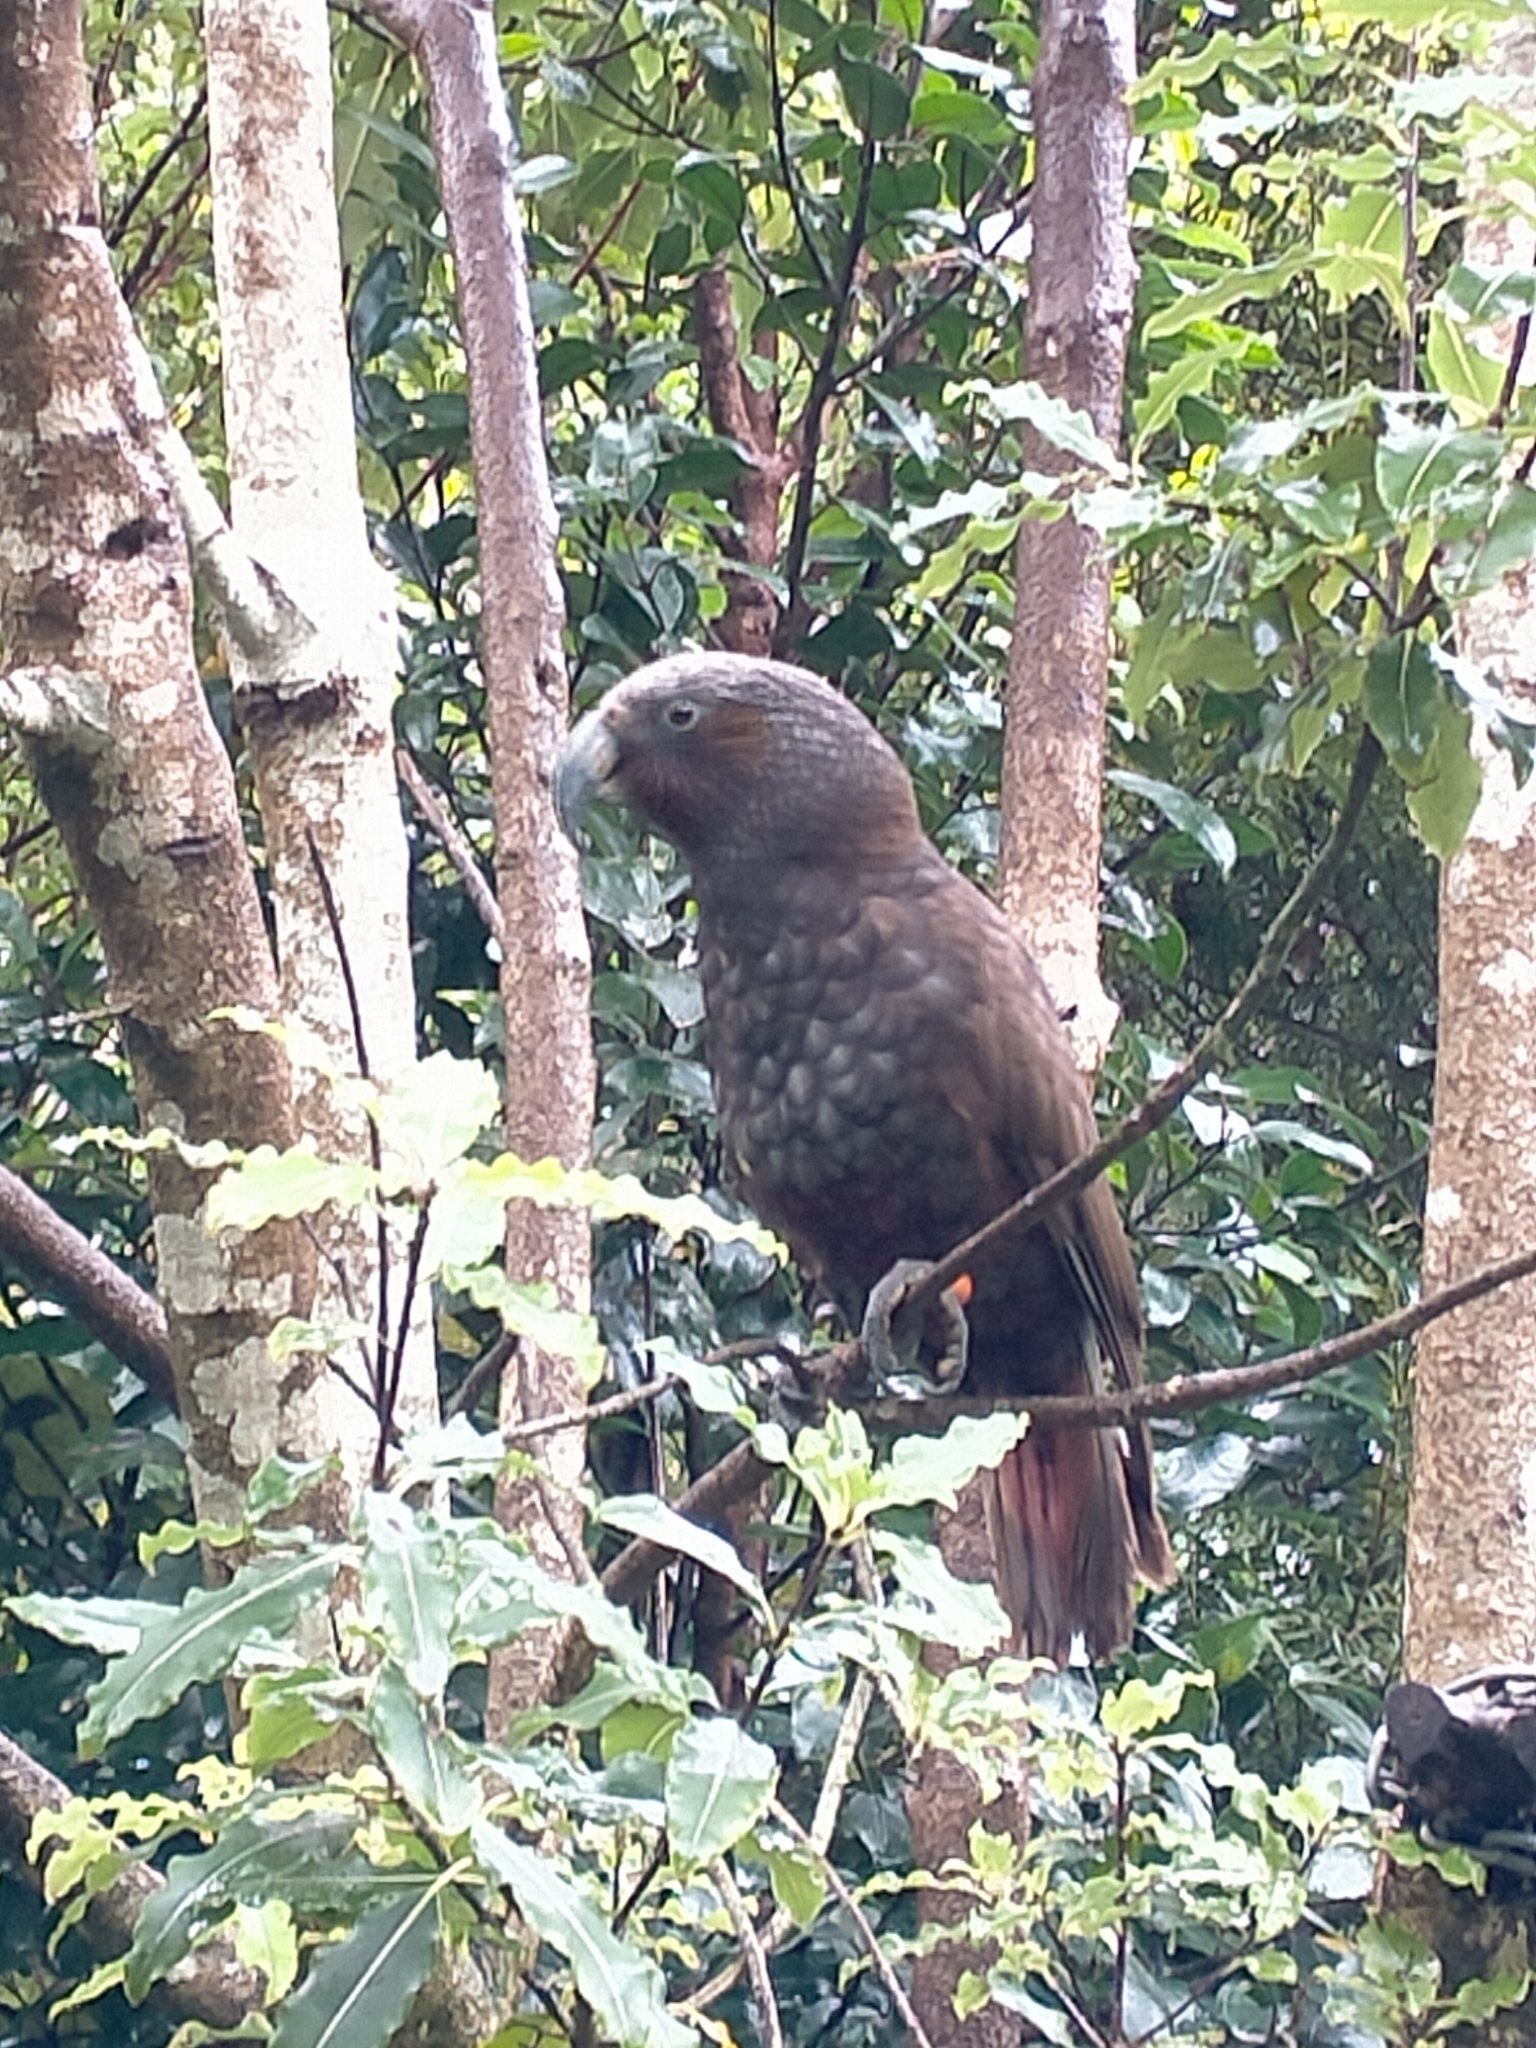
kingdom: Animalia
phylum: Chordata
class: Aves
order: Psittaciformes
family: Psittacidae
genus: Nestor
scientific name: Nestor meridionalis
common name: New zealand kaka
